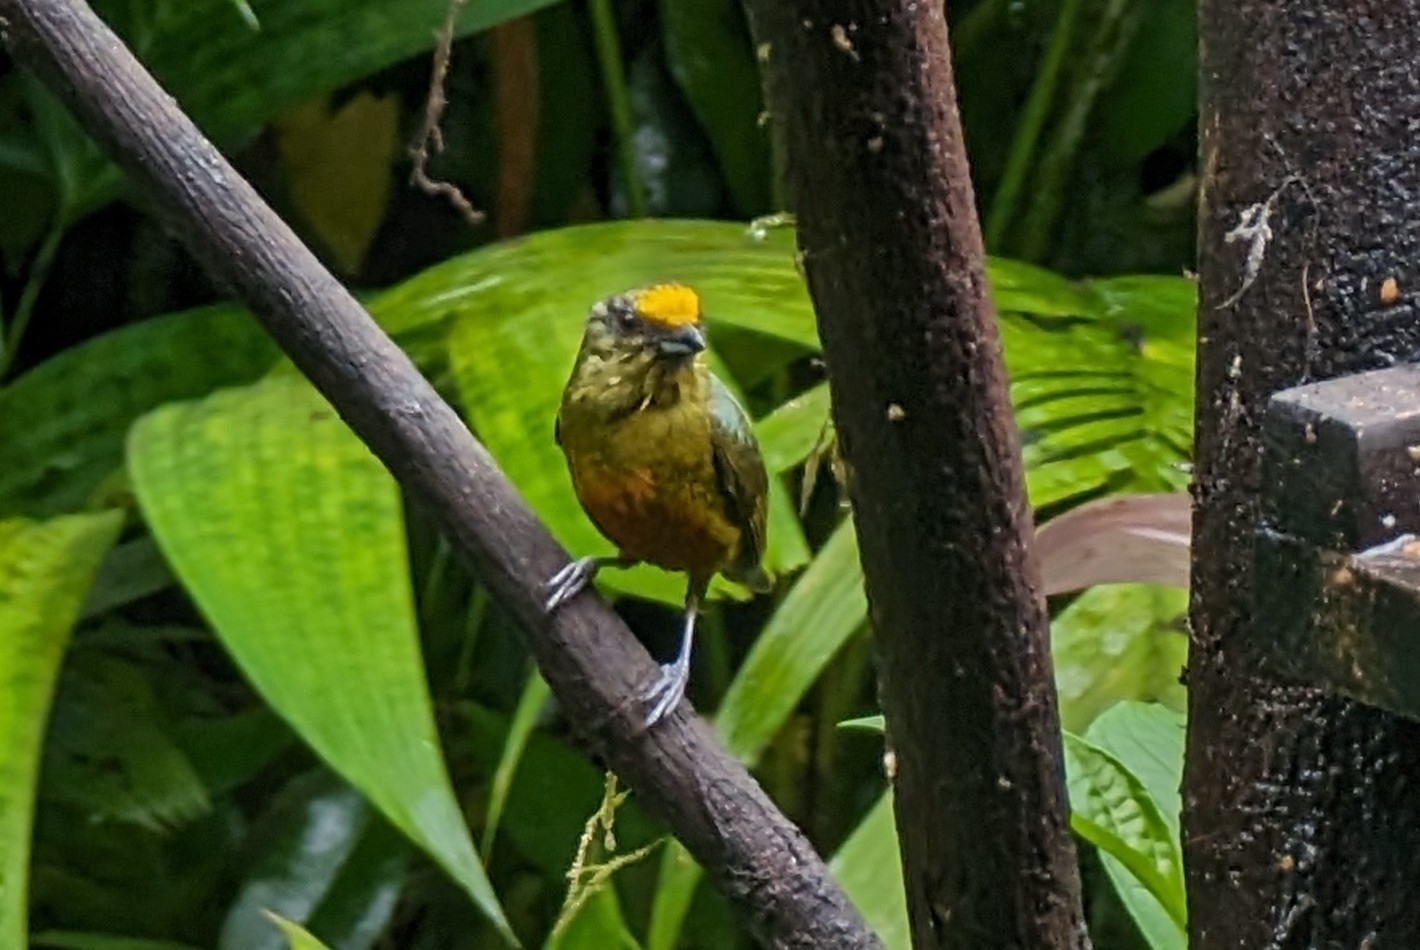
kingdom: Animalia
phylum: Chordata
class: Aves
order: Passeriformes
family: Fringillidae
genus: Euphonia
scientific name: Euphonia gouldi
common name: Olive-backed euphonia
